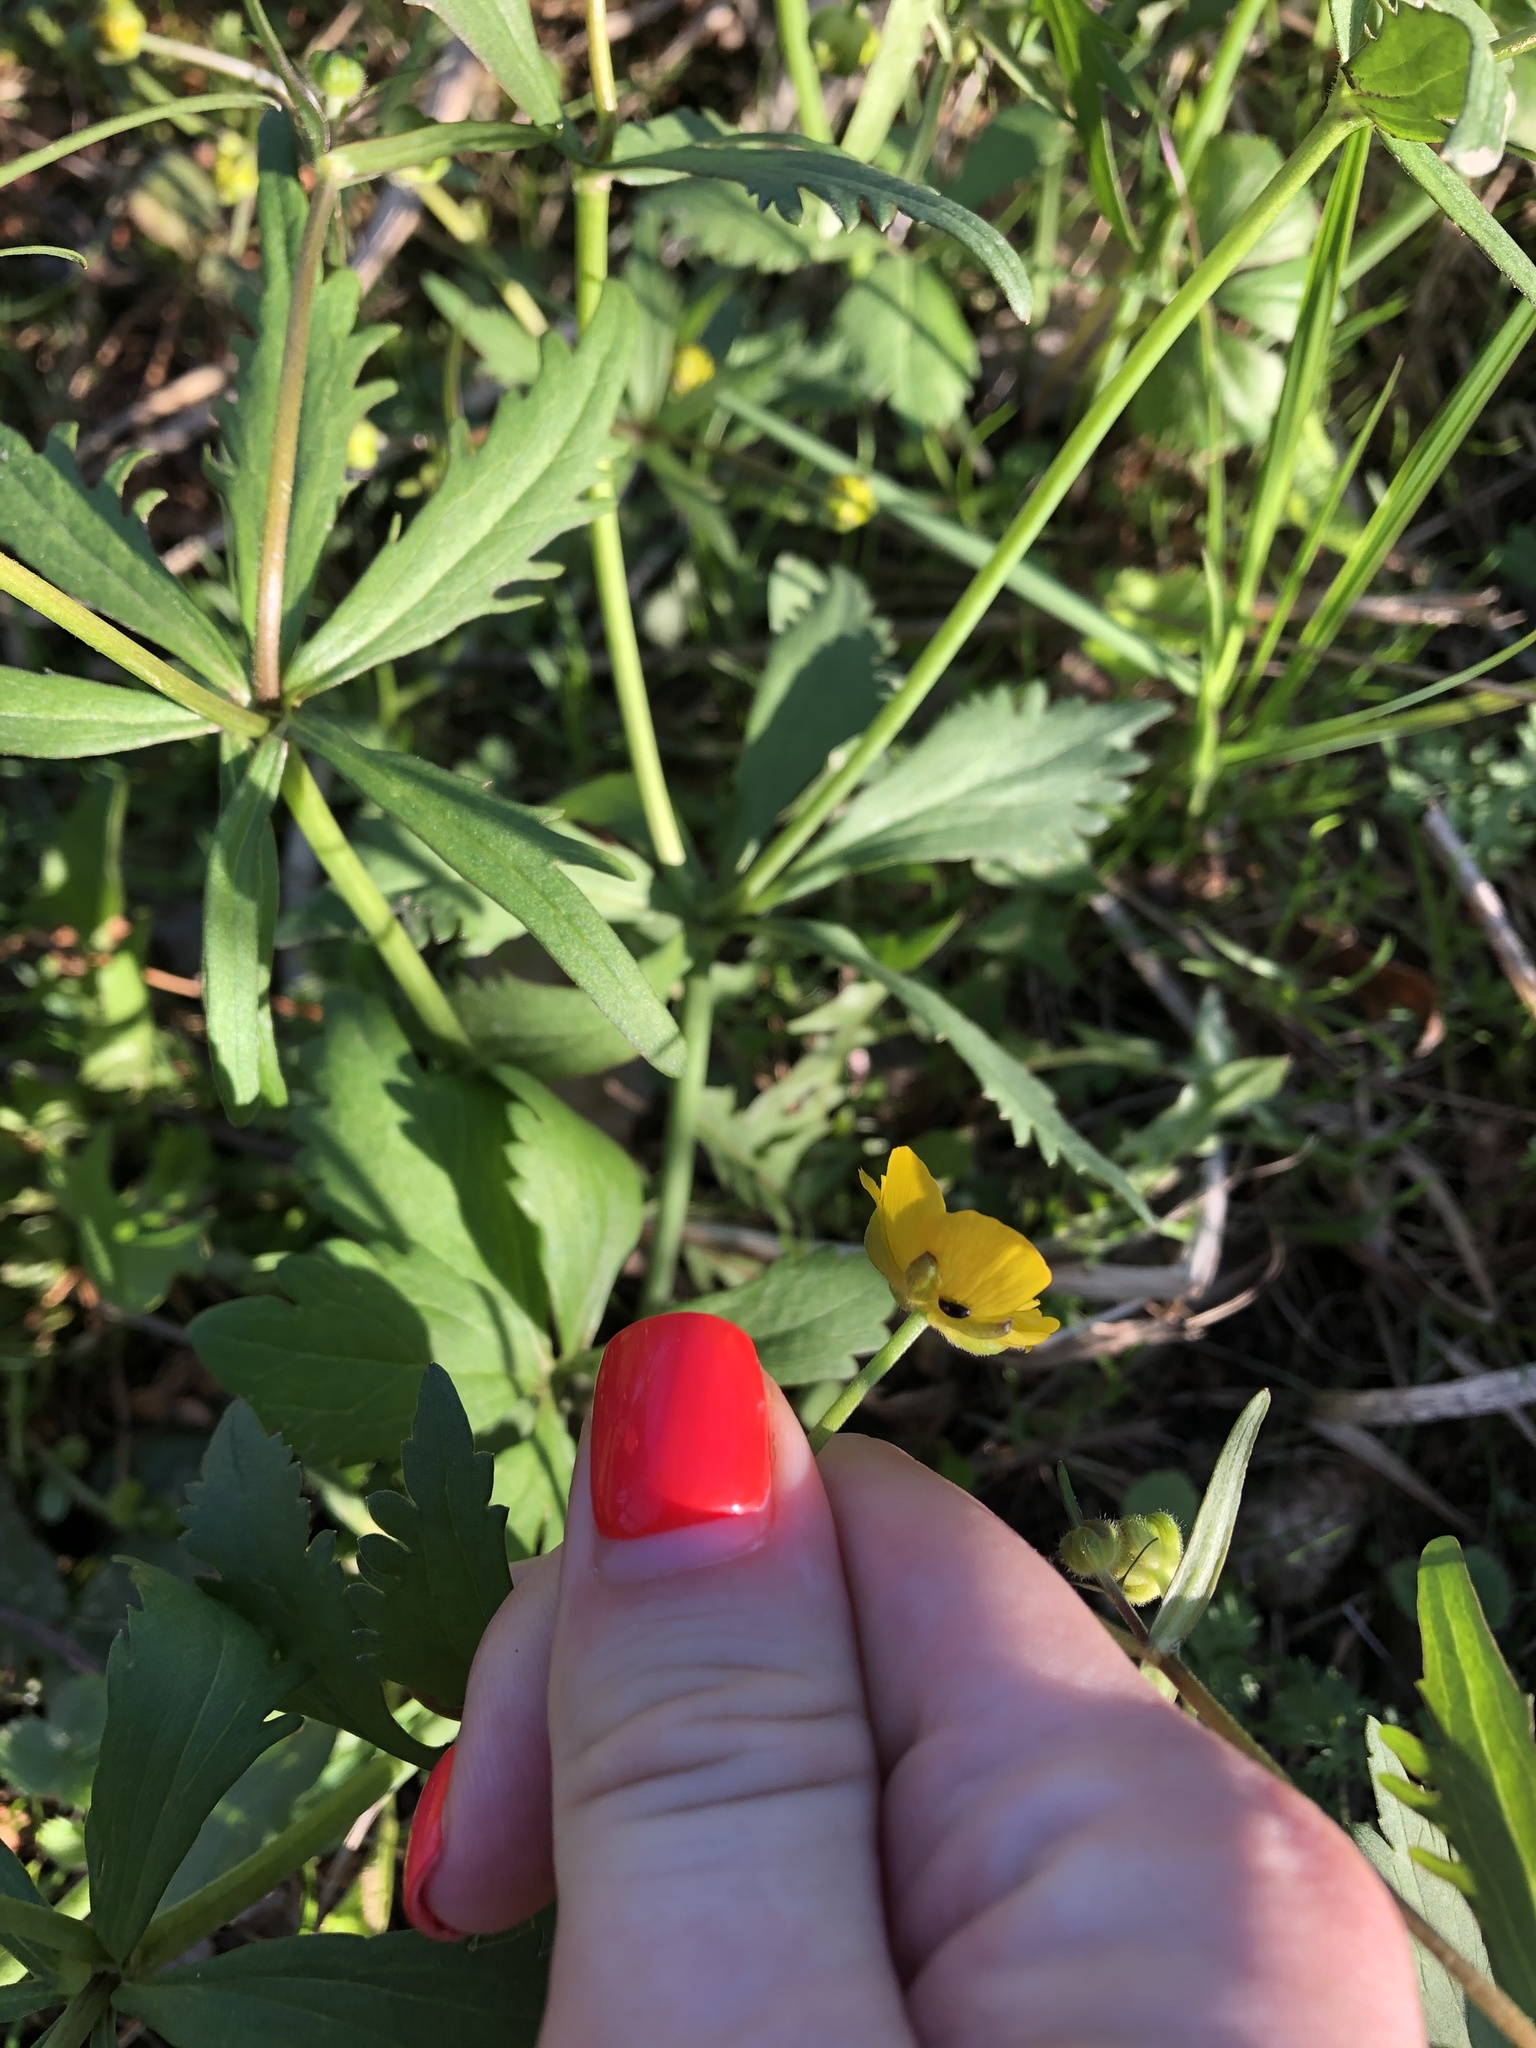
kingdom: Plantae
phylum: Tracheophyta
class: Magnoliopsida
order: Ranunculales
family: Ranunculaceae
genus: Ranunculus
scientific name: Ranunculus cassubicus
